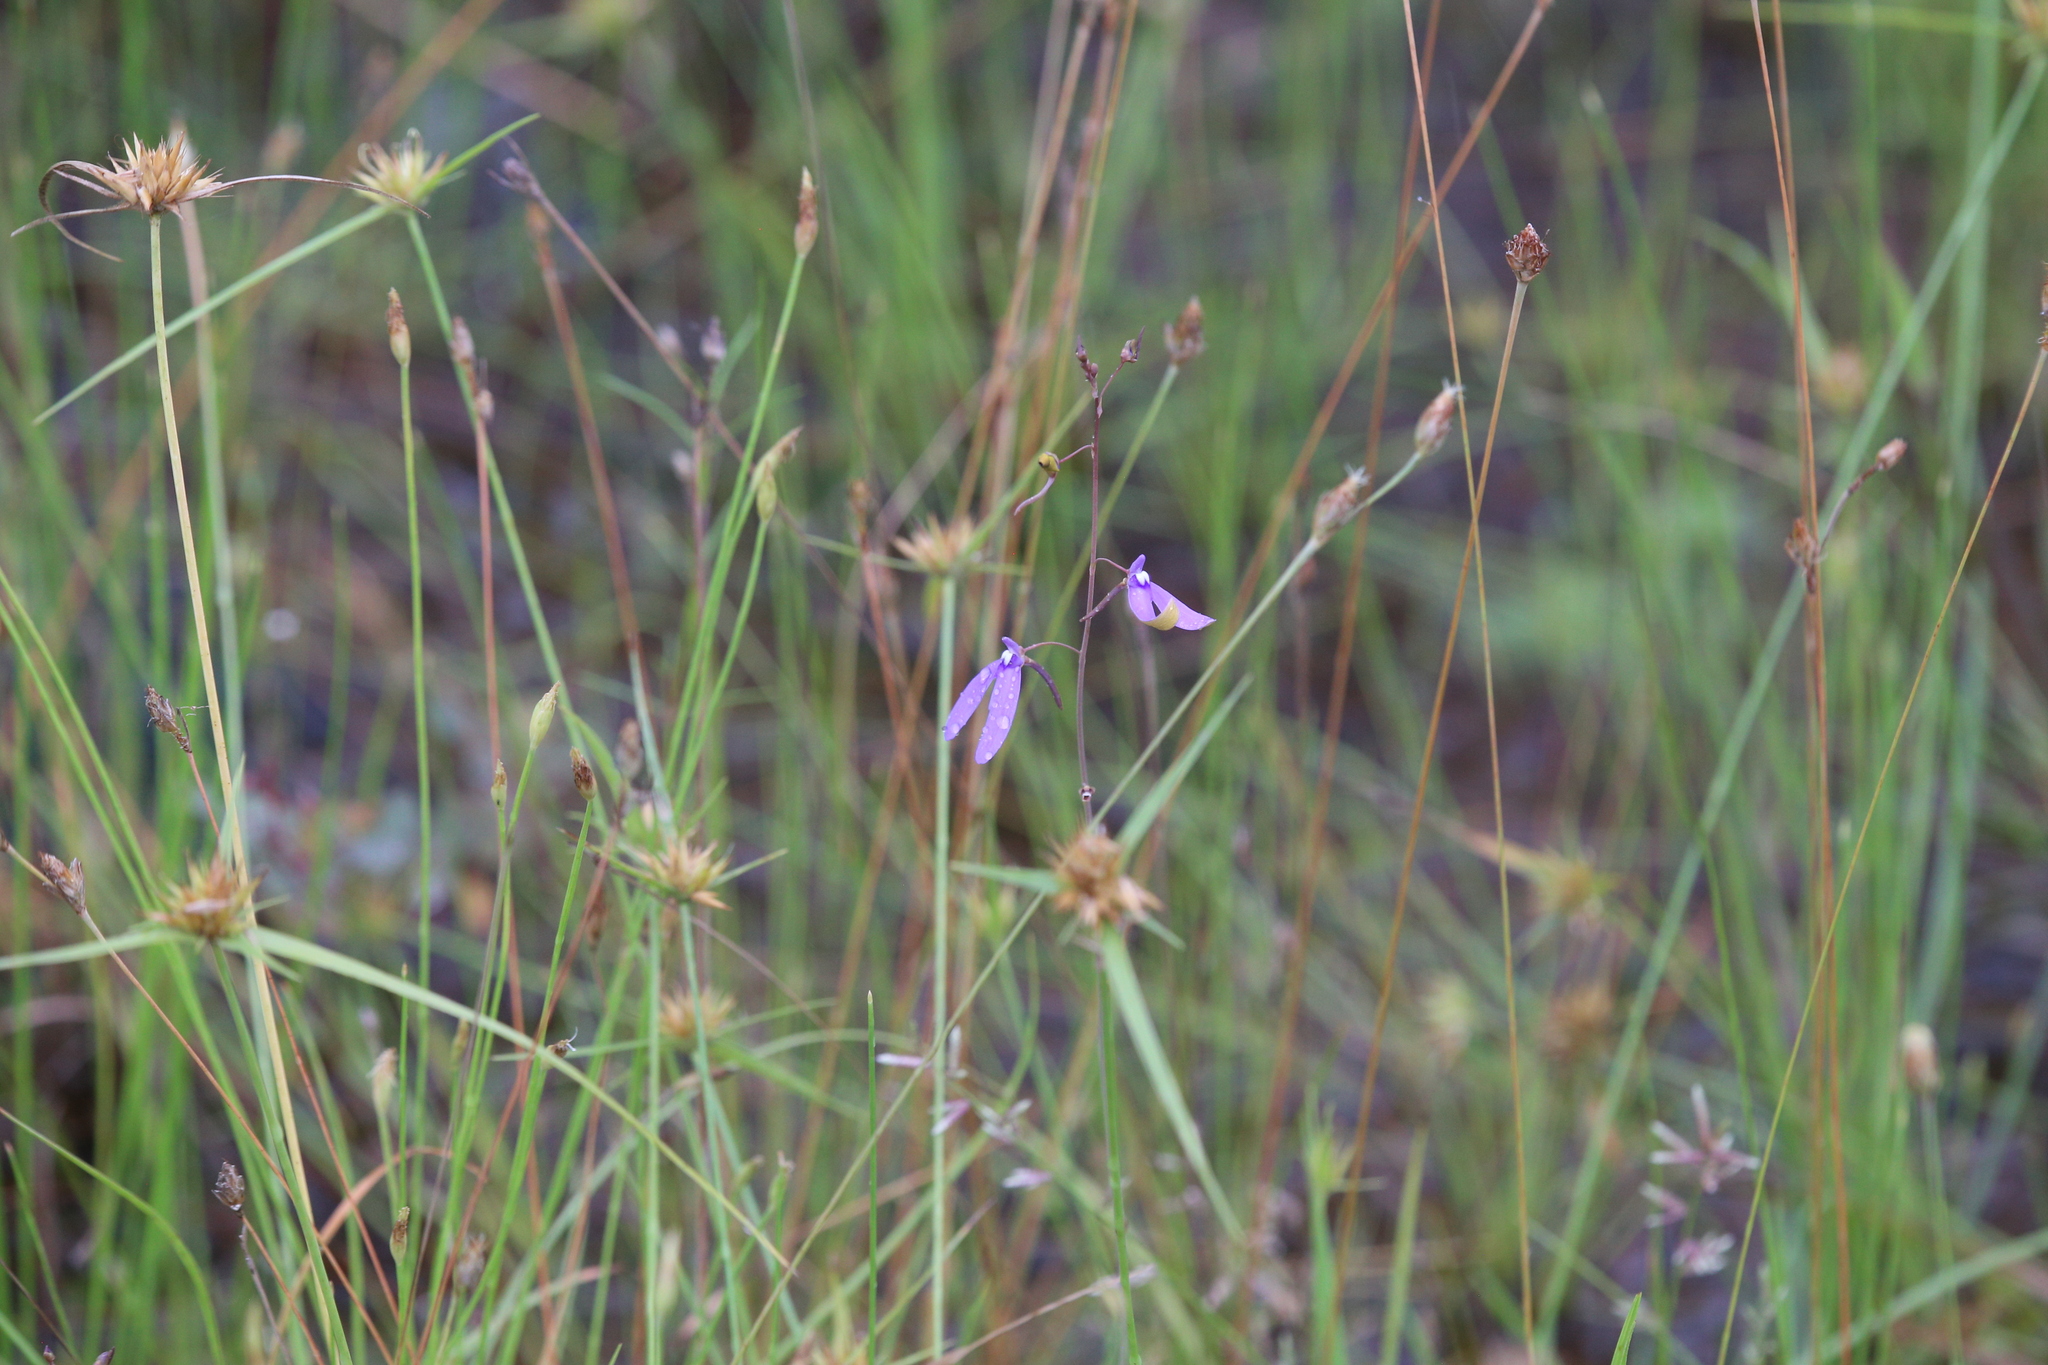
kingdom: Plantae
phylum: Tracheophyta
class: Magnoliopsida
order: Lamiales
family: Lentibulariaceae
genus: Utricularia
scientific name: Utricularia leptoplectra
